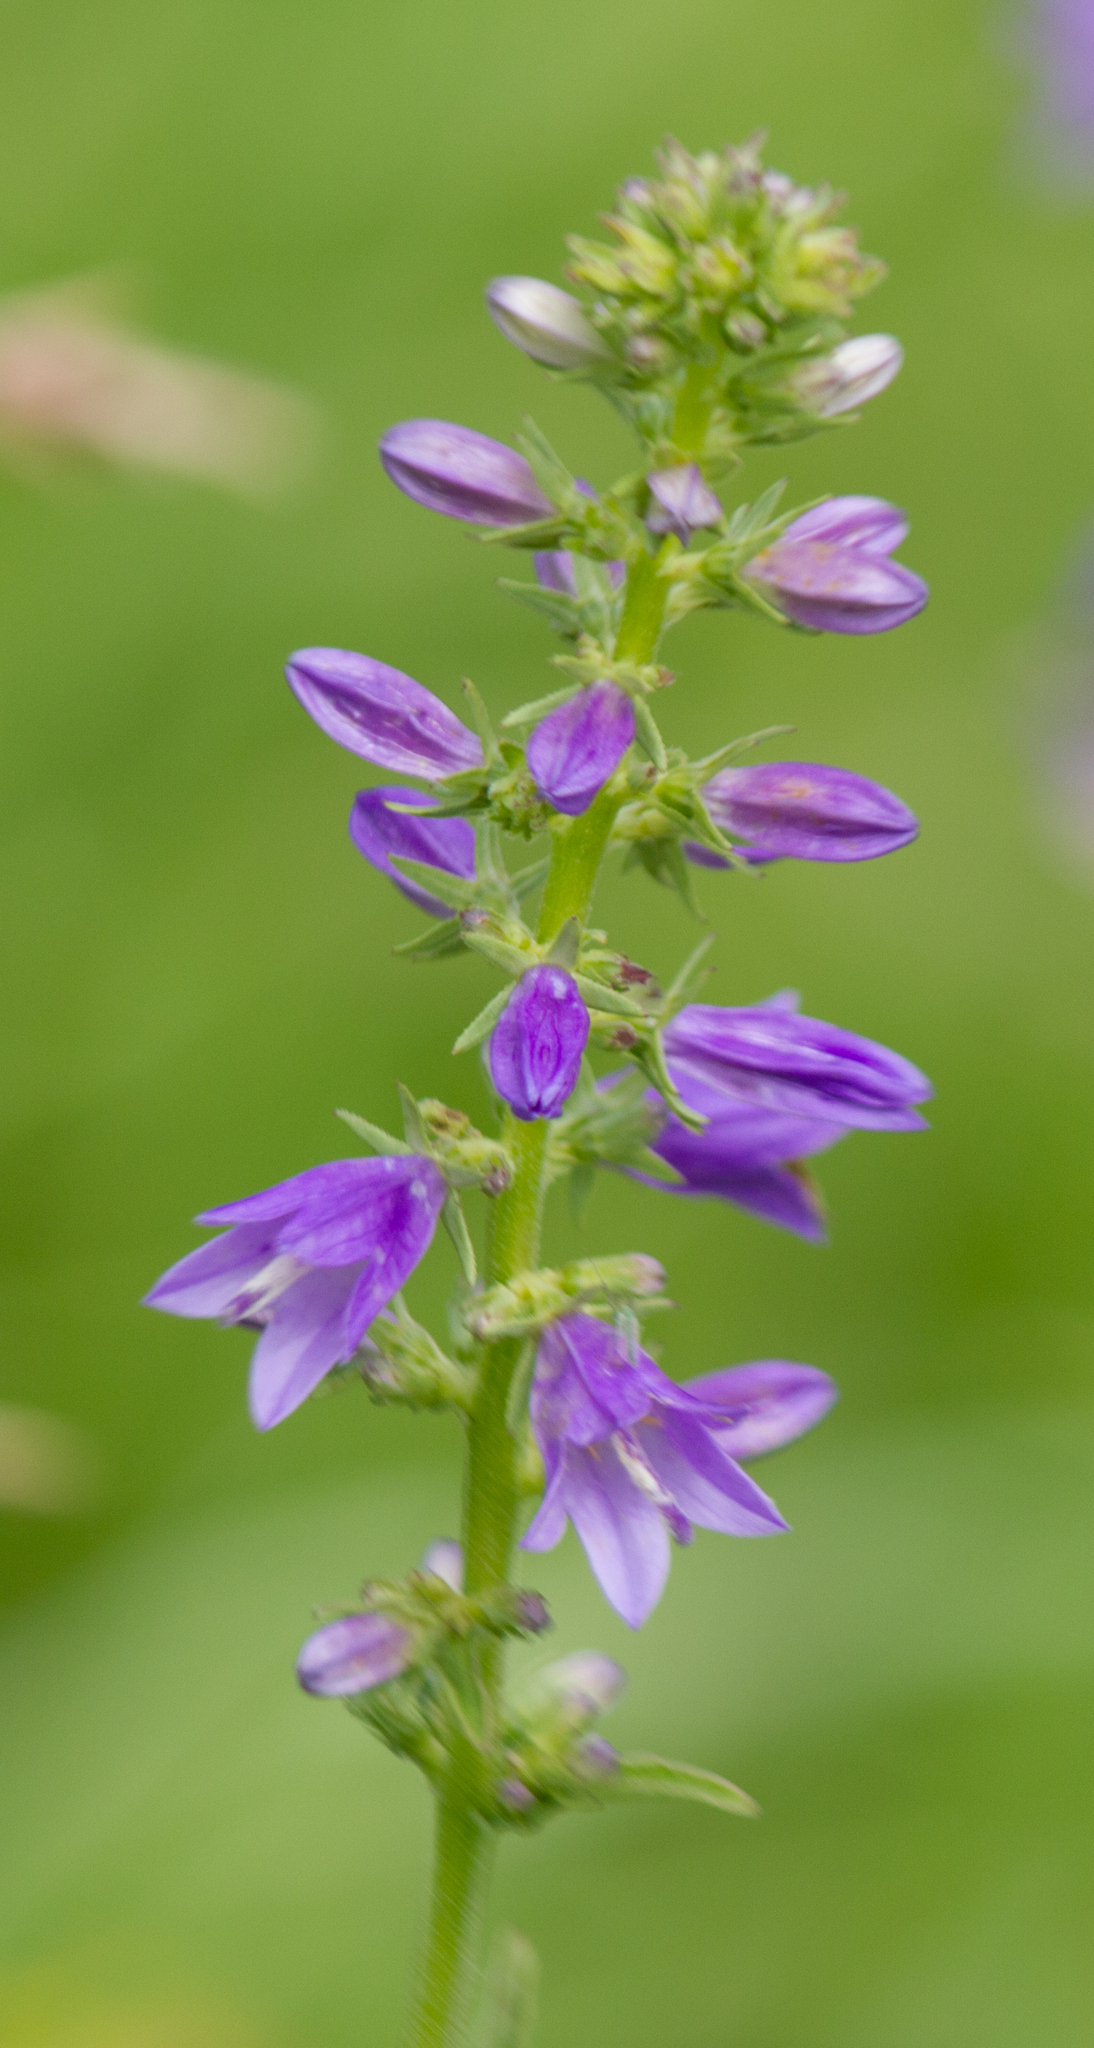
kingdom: Plantae
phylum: Tracheophyta
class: Magnoliopsida
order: Asterales
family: Campanulaceae
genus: Campanula
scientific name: Campanula bononiensis
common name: Pale bellflower
